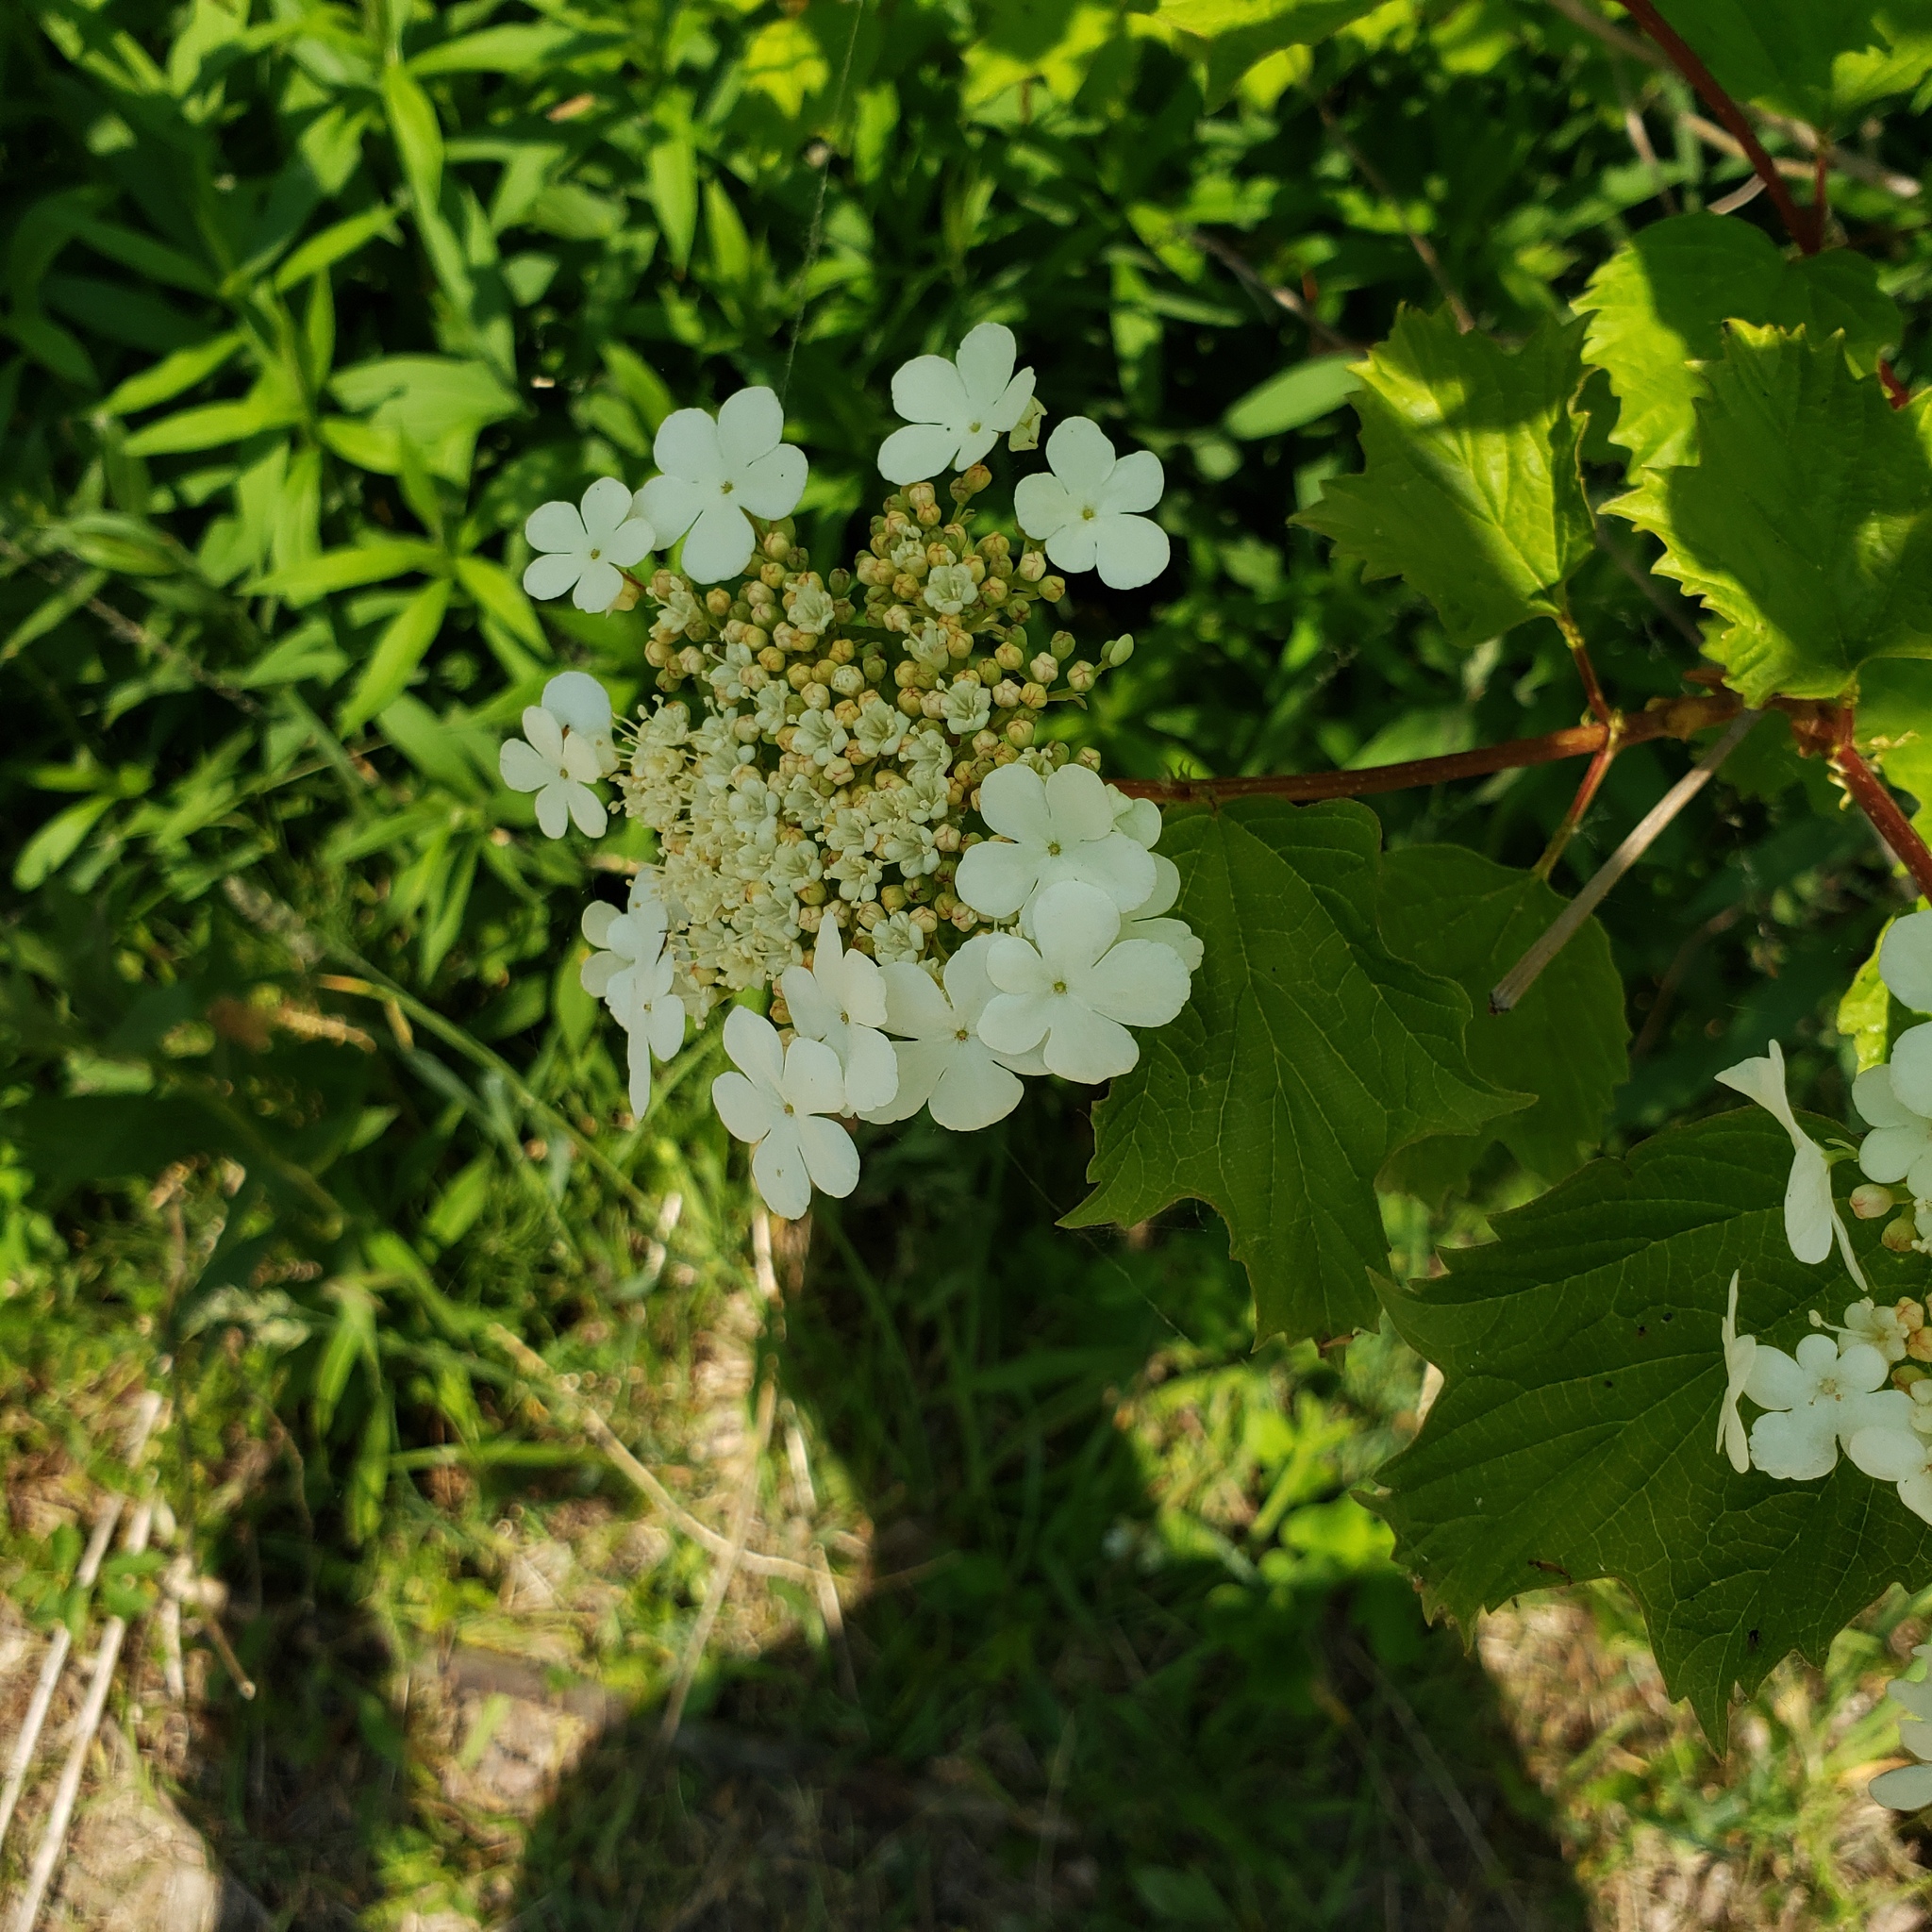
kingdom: Plantae
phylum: Tracheophyta
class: Magnoliopsida
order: Dipsacales
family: Viburnaceae
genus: Viburnum
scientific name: Viburnum opulus
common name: Guelder-rose
